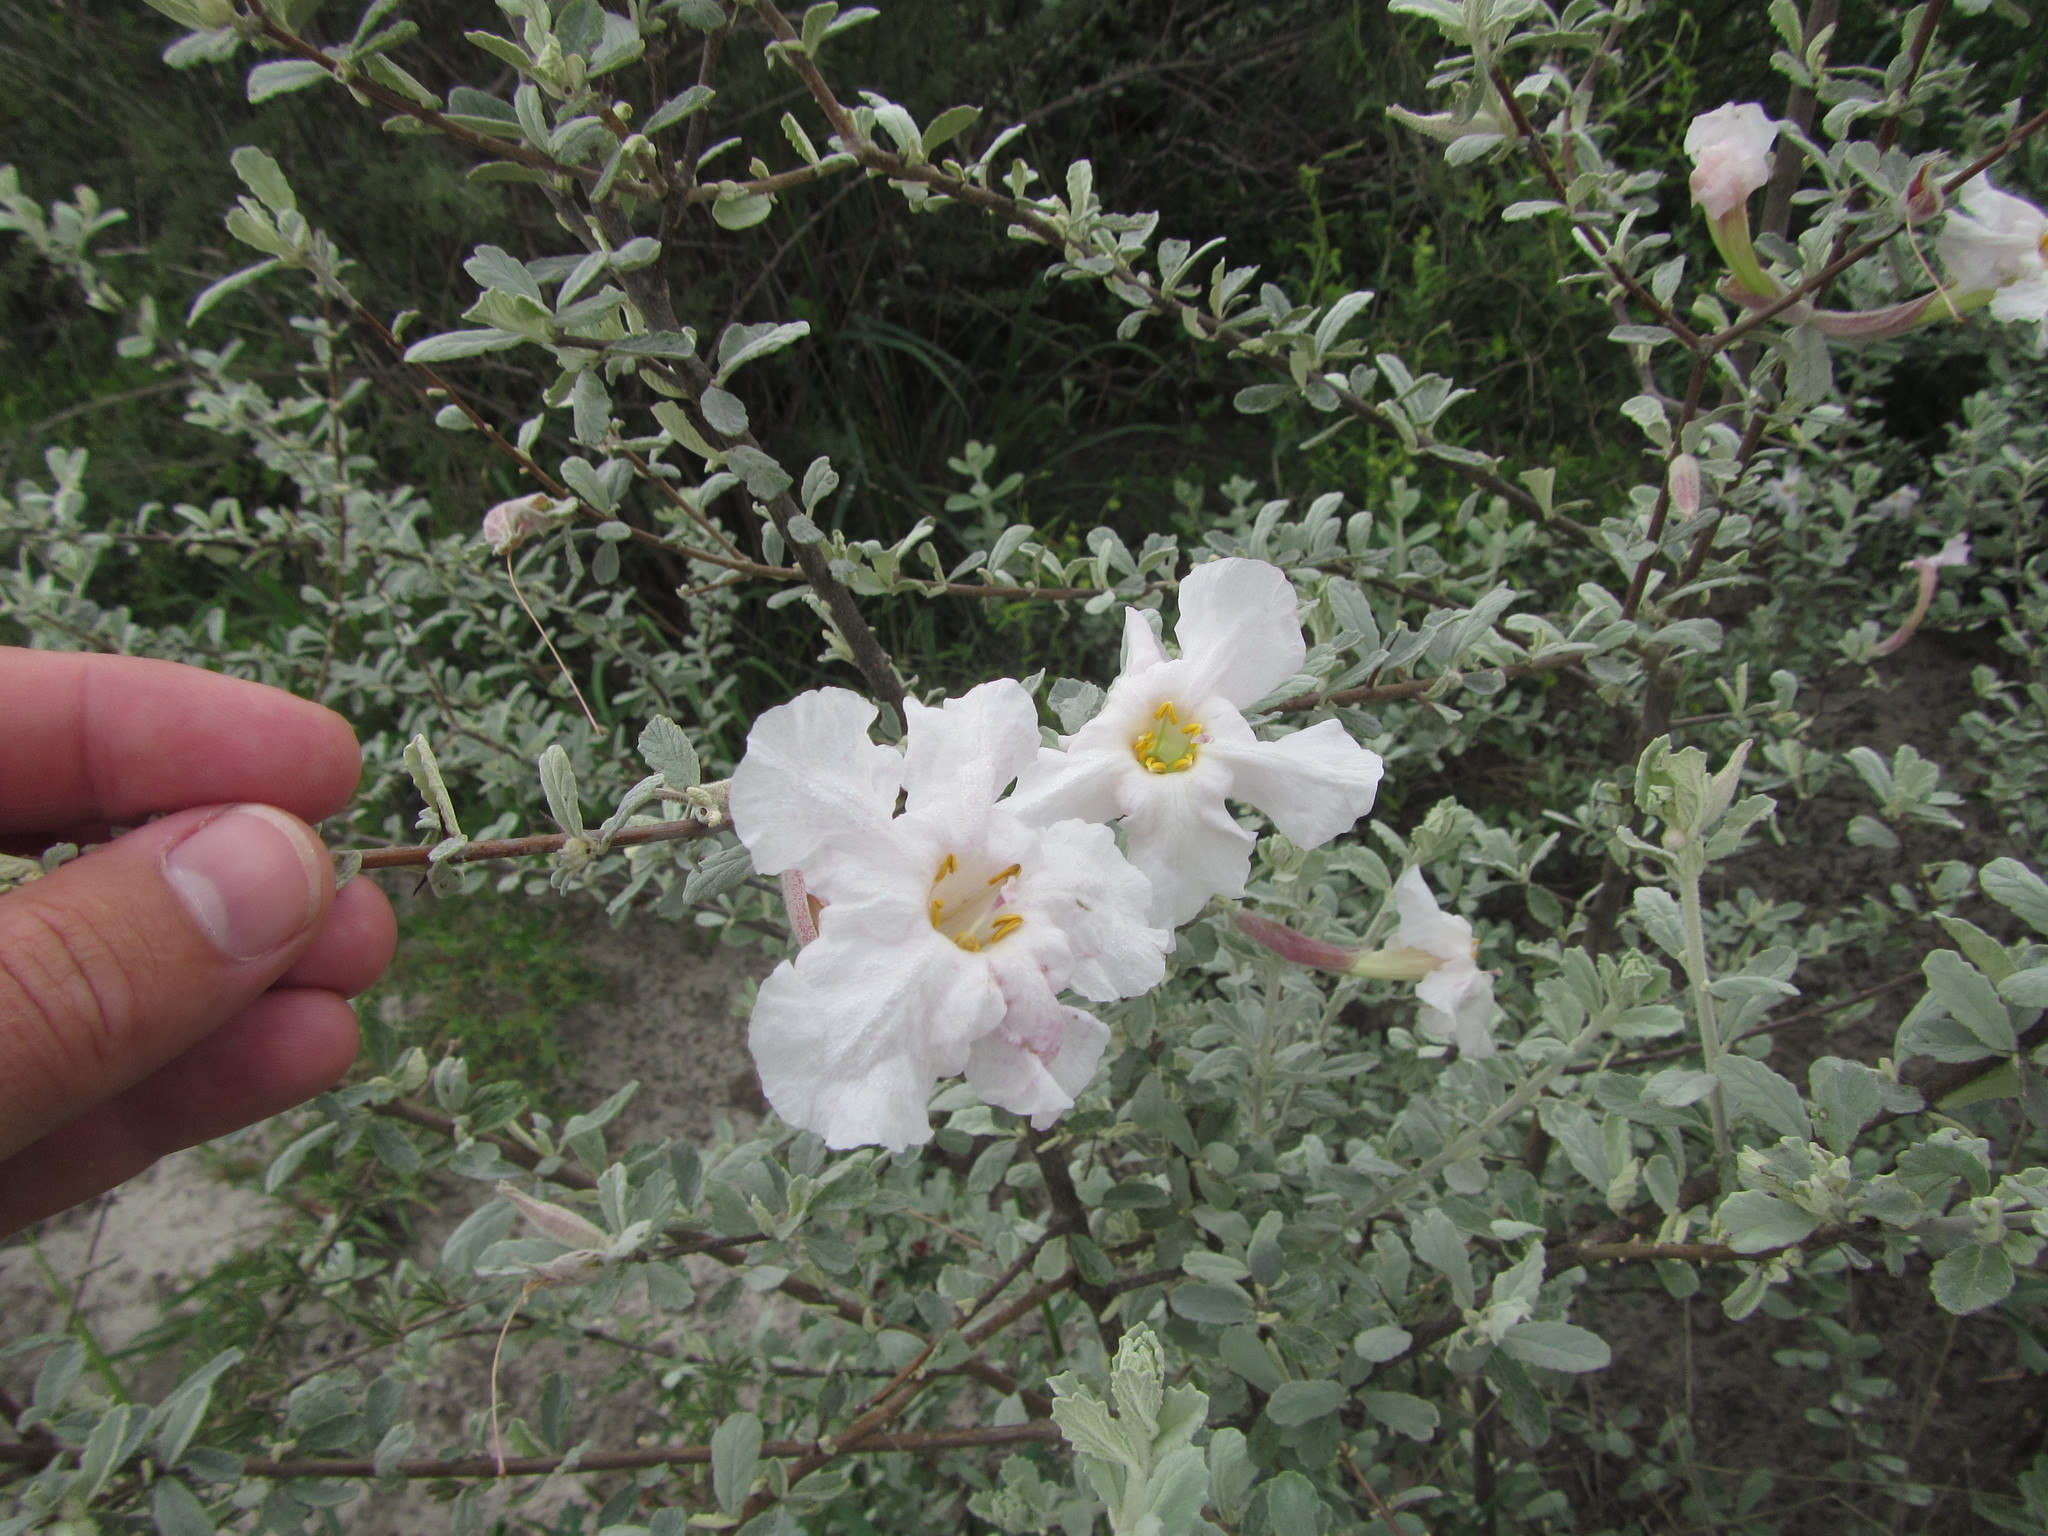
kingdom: Plantae
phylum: Tracheophyta
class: Magnoliopsida
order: Lamiales
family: Bignoniaceae
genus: Catophractes
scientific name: Catophractes alexandri
